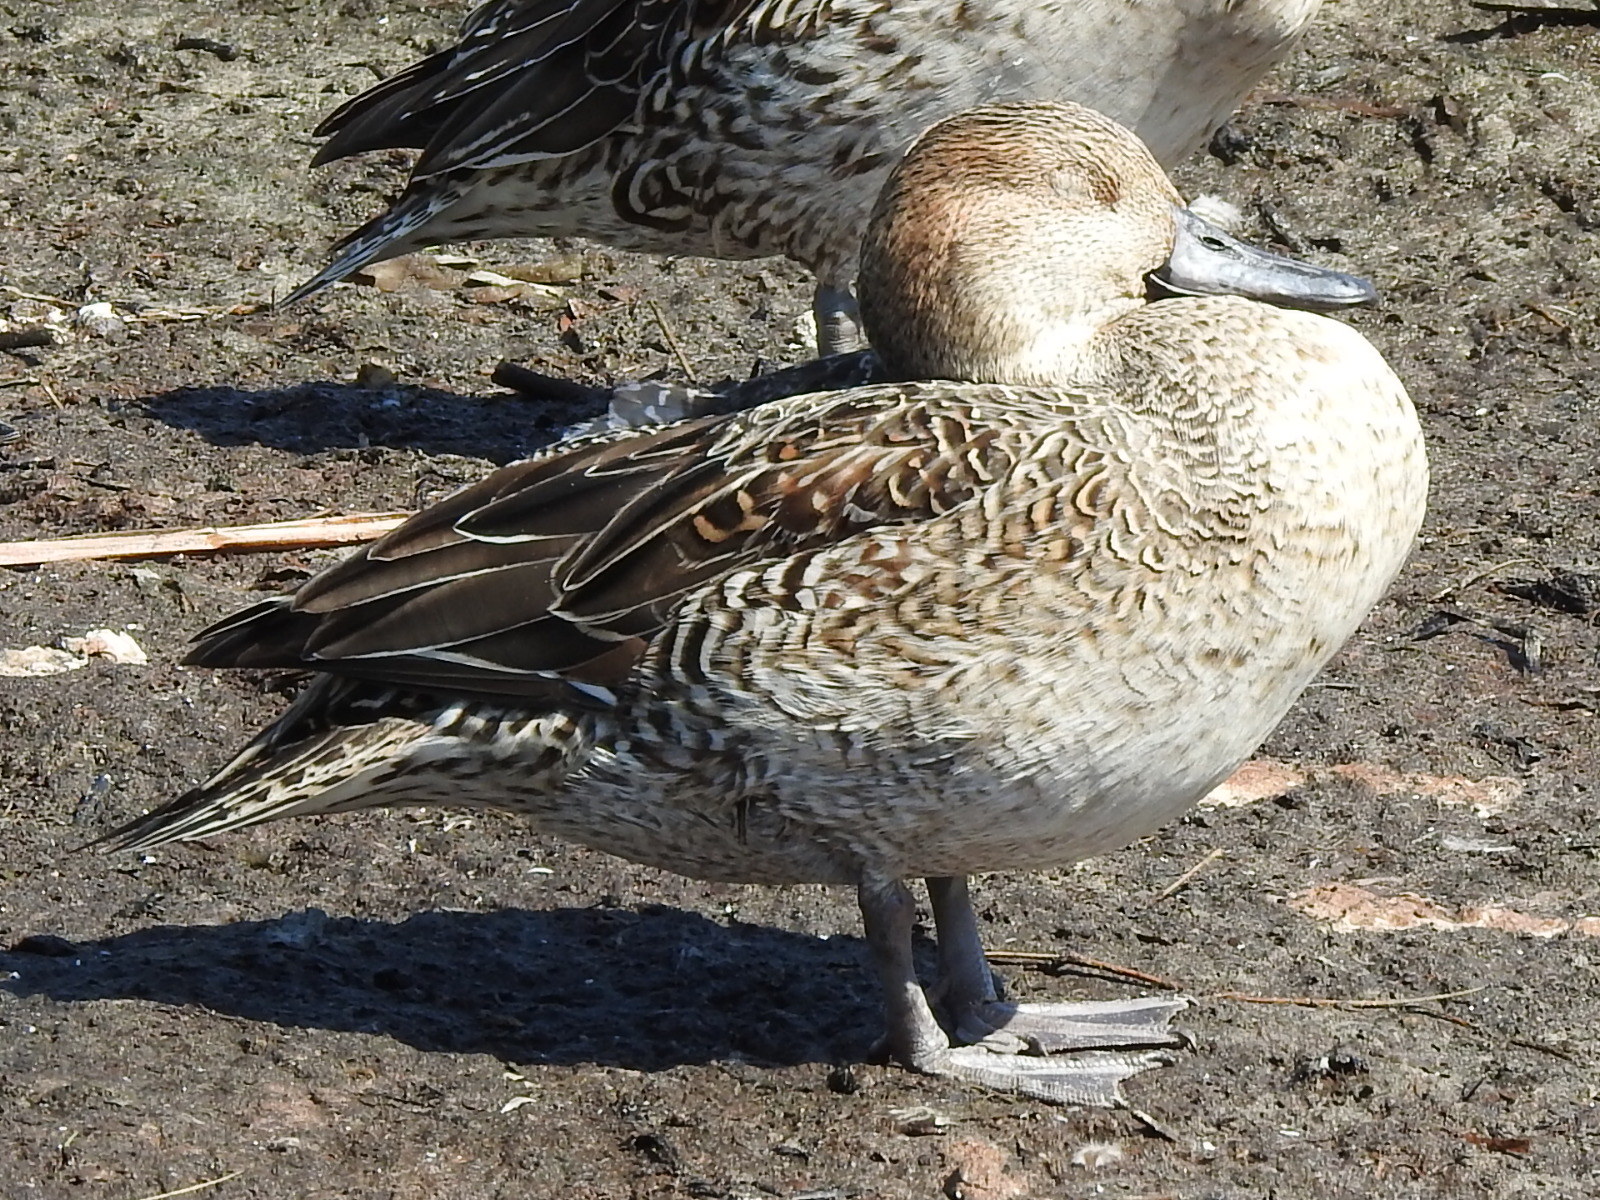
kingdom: Animalia
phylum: Chordata
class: Aves
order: Anseriformes
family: Anatidae
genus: Anas
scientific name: Anas acuta
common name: Northern pintail
